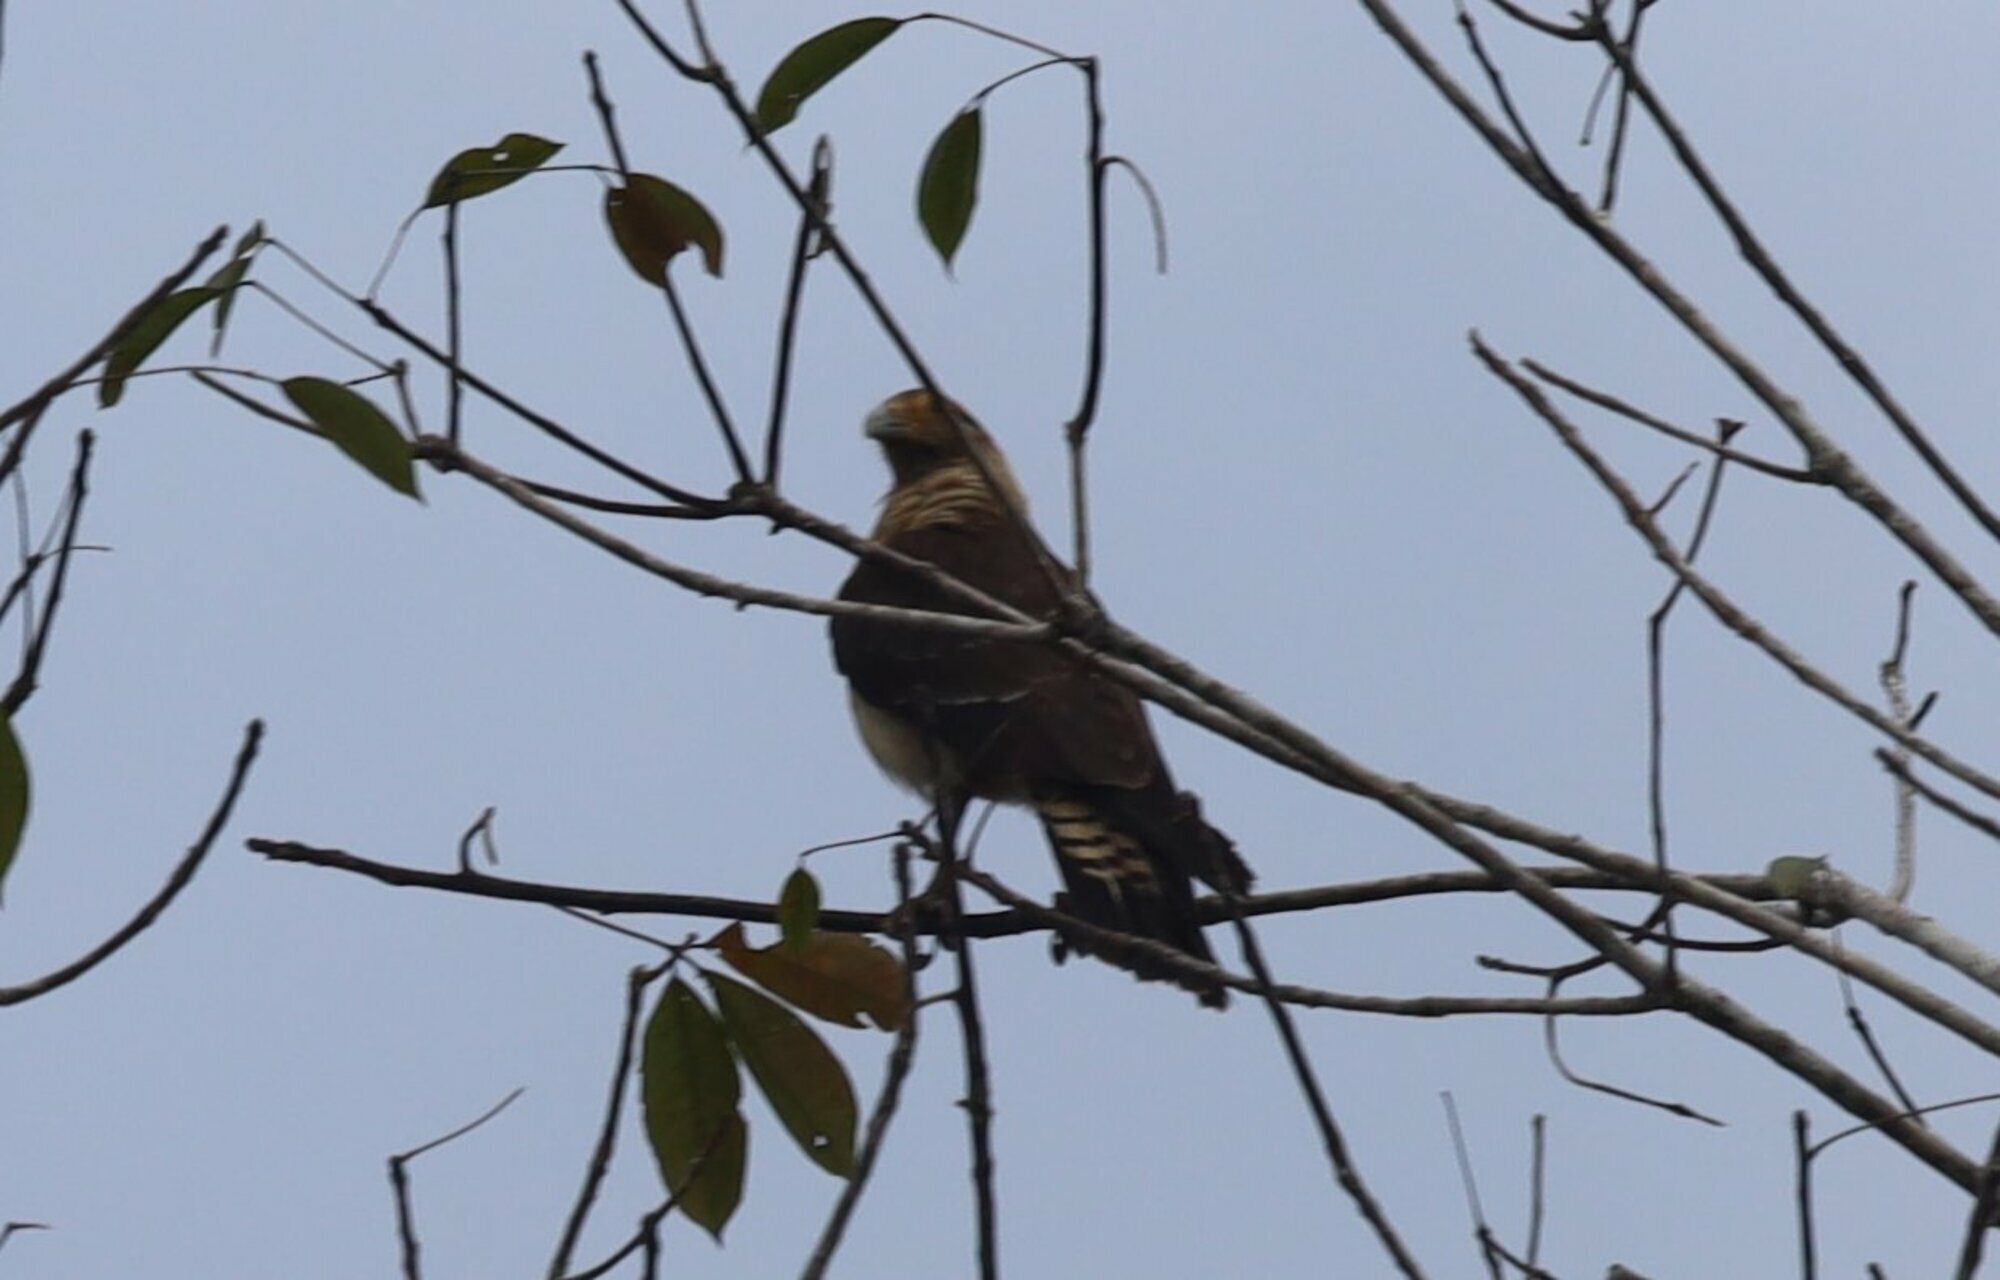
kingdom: Animalia
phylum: Chordata
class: Aves
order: Falconiformes
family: Falconidae
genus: Daptrius
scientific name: Daptrius
